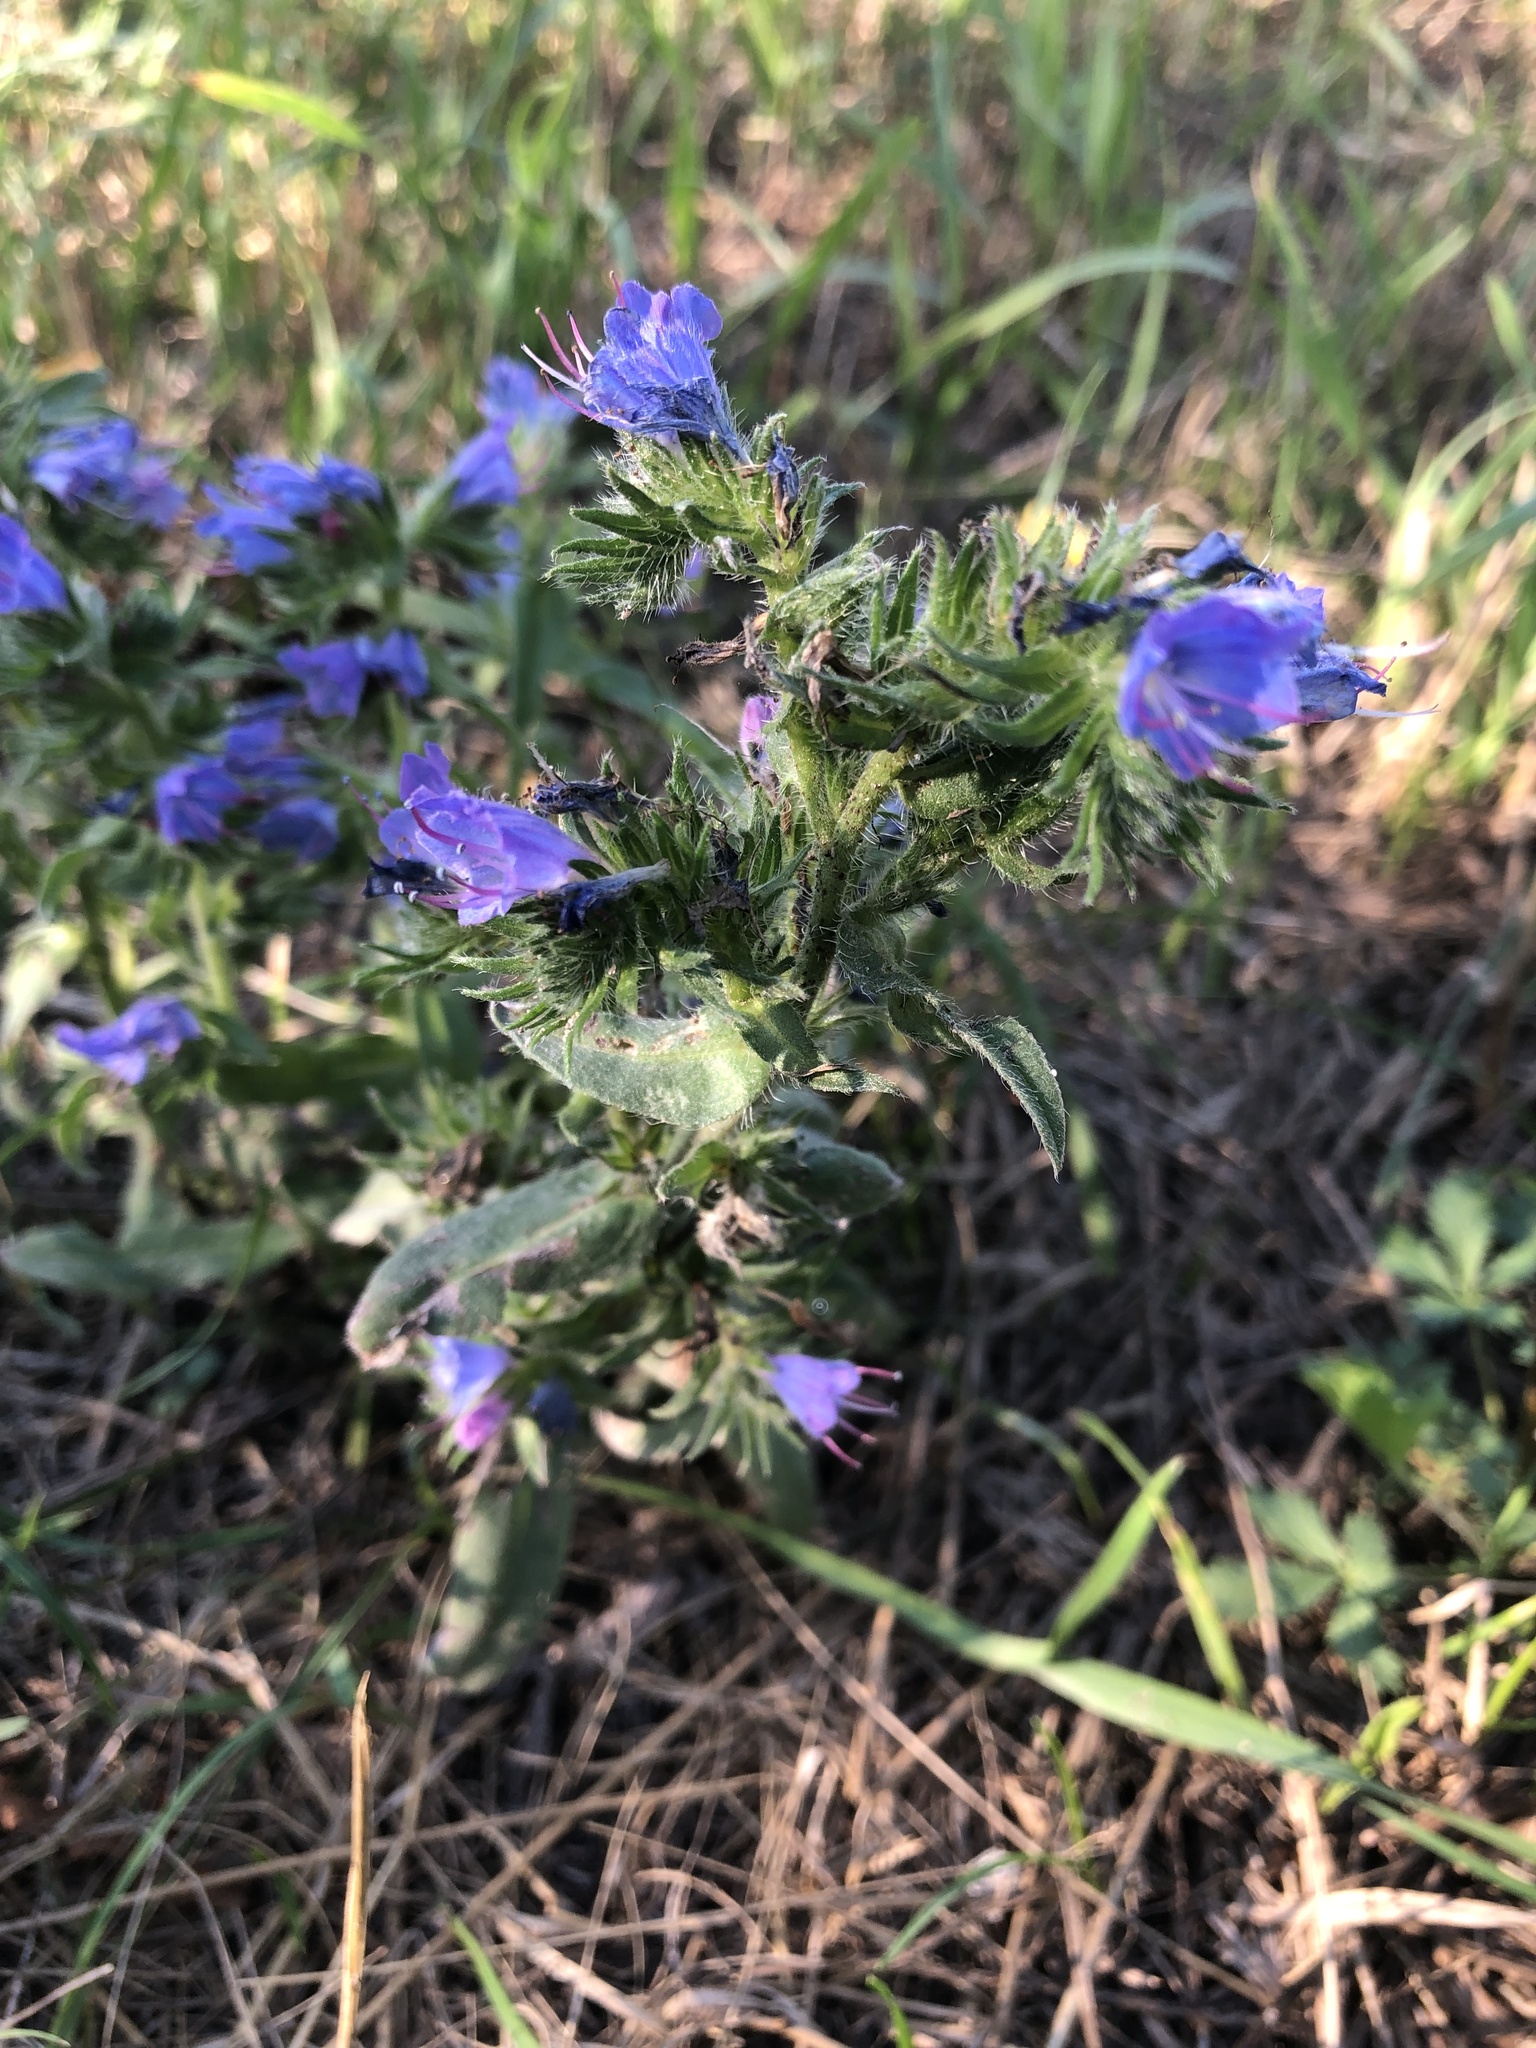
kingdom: Plantae
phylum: Tracheophyta
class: Magnoliopsida
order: Boraginales
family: Boraginaceae
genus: Echium
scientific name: Echium vulgare
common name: Common viper's bugloss
